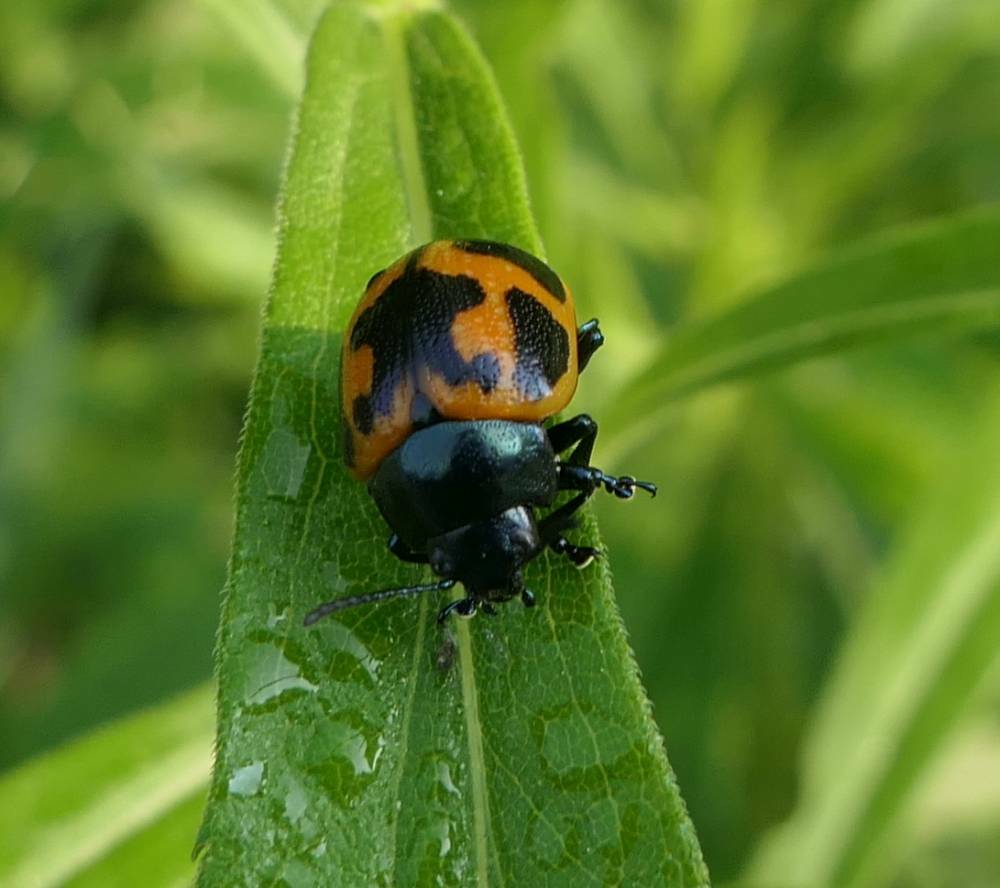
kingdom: Animalia
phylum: Arthropoda
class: Insecta
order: Coleoptera
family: Chrysomelidae
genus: Labidomera
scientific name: Labidomera clivicollis
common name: Swamp milkweed leaf beetle
